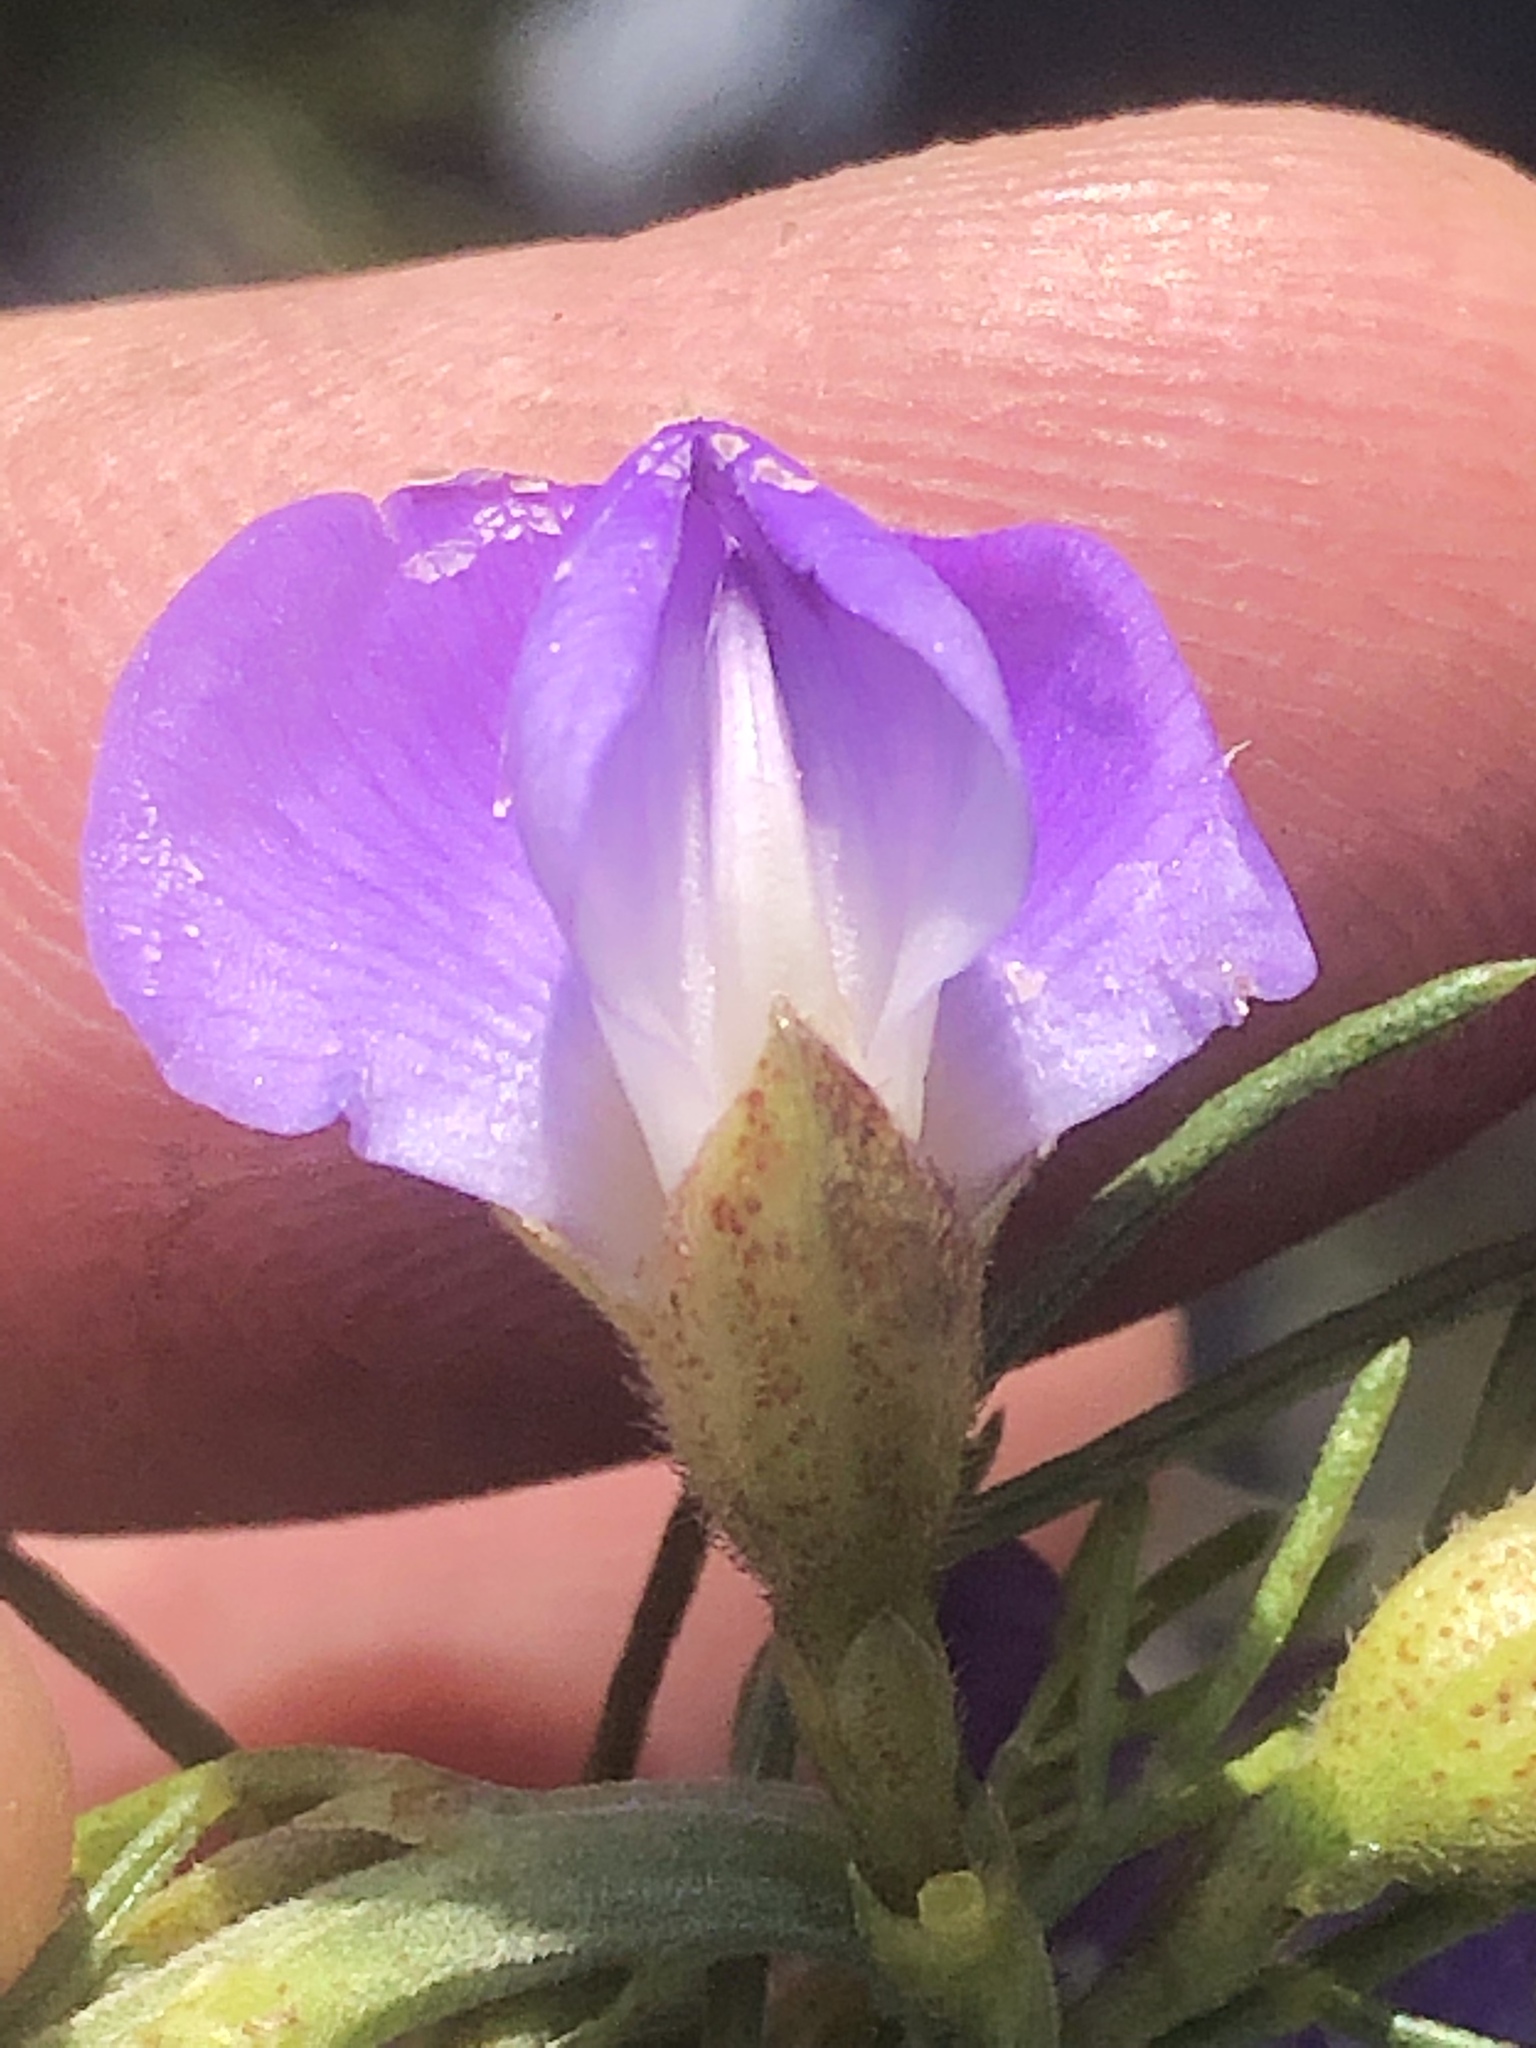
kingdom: Plantae
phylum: Tracheophyta
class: Magnoliopsida
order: Fabales
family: Fabaceae
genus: Psoralea
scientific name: Psoralea speciosa
